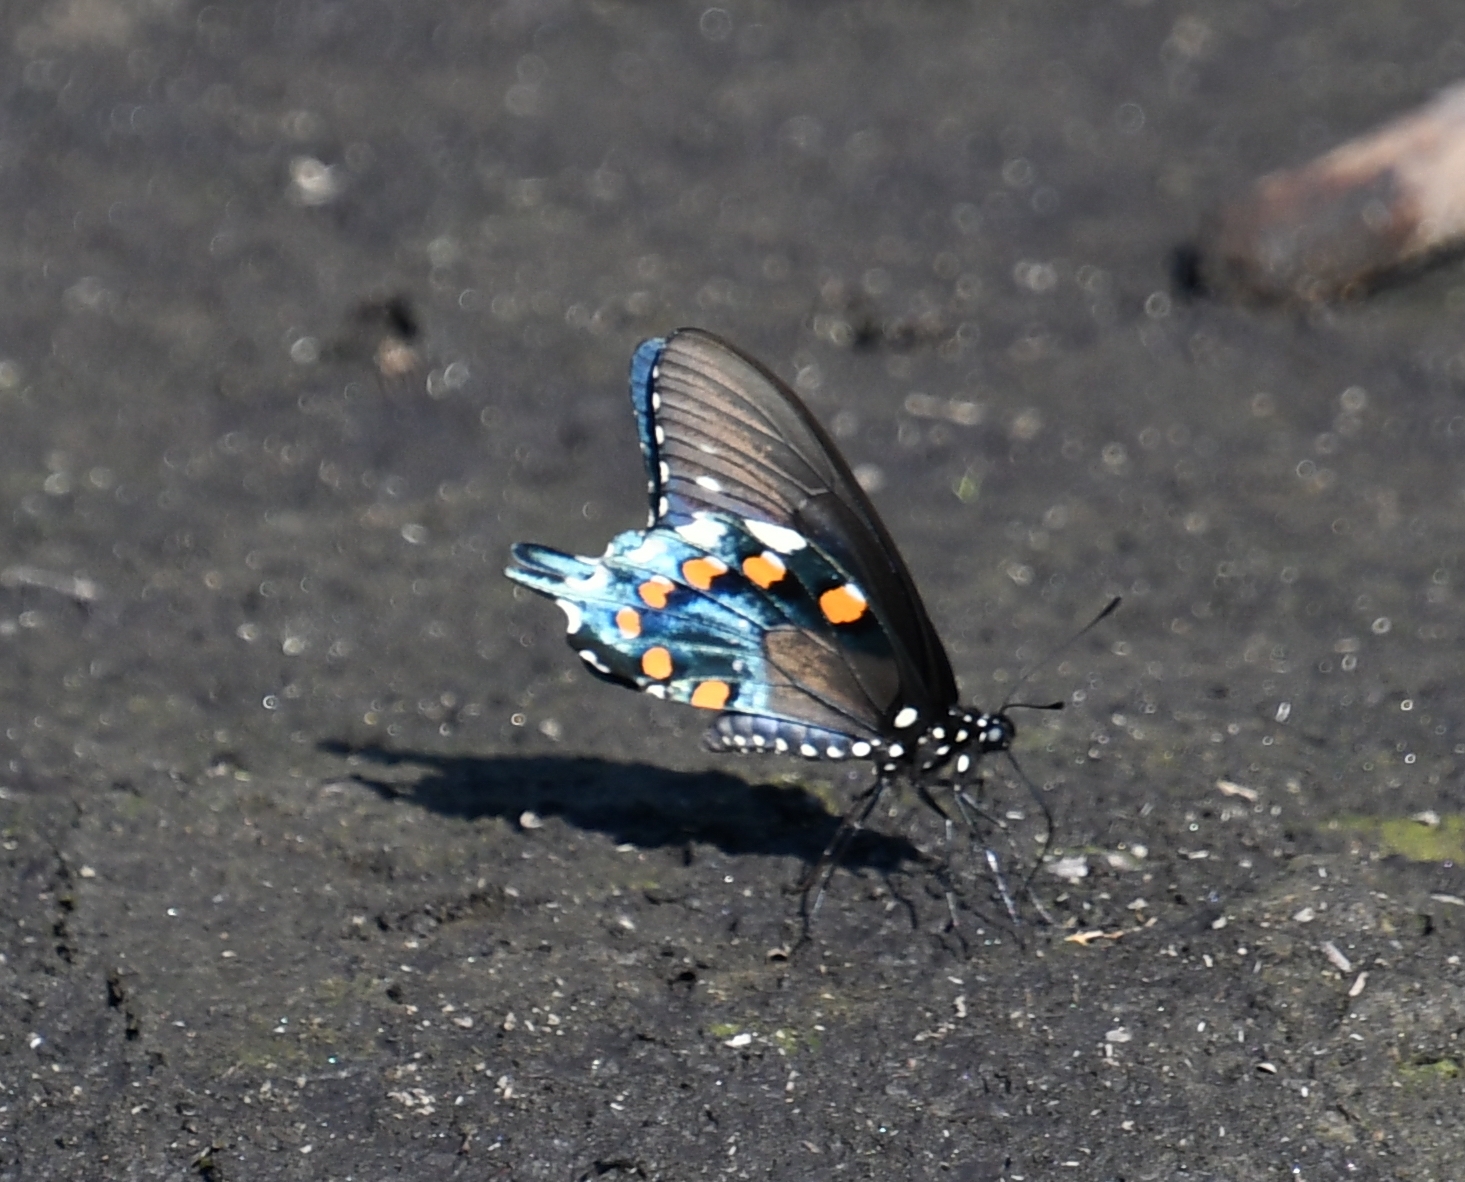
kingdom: Animalia
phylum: Arthropoda
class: Insecta
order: Lepidoptera
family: Papilionidae
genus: Battus
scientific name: Battus philenor
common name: Pipevine swallowtail
